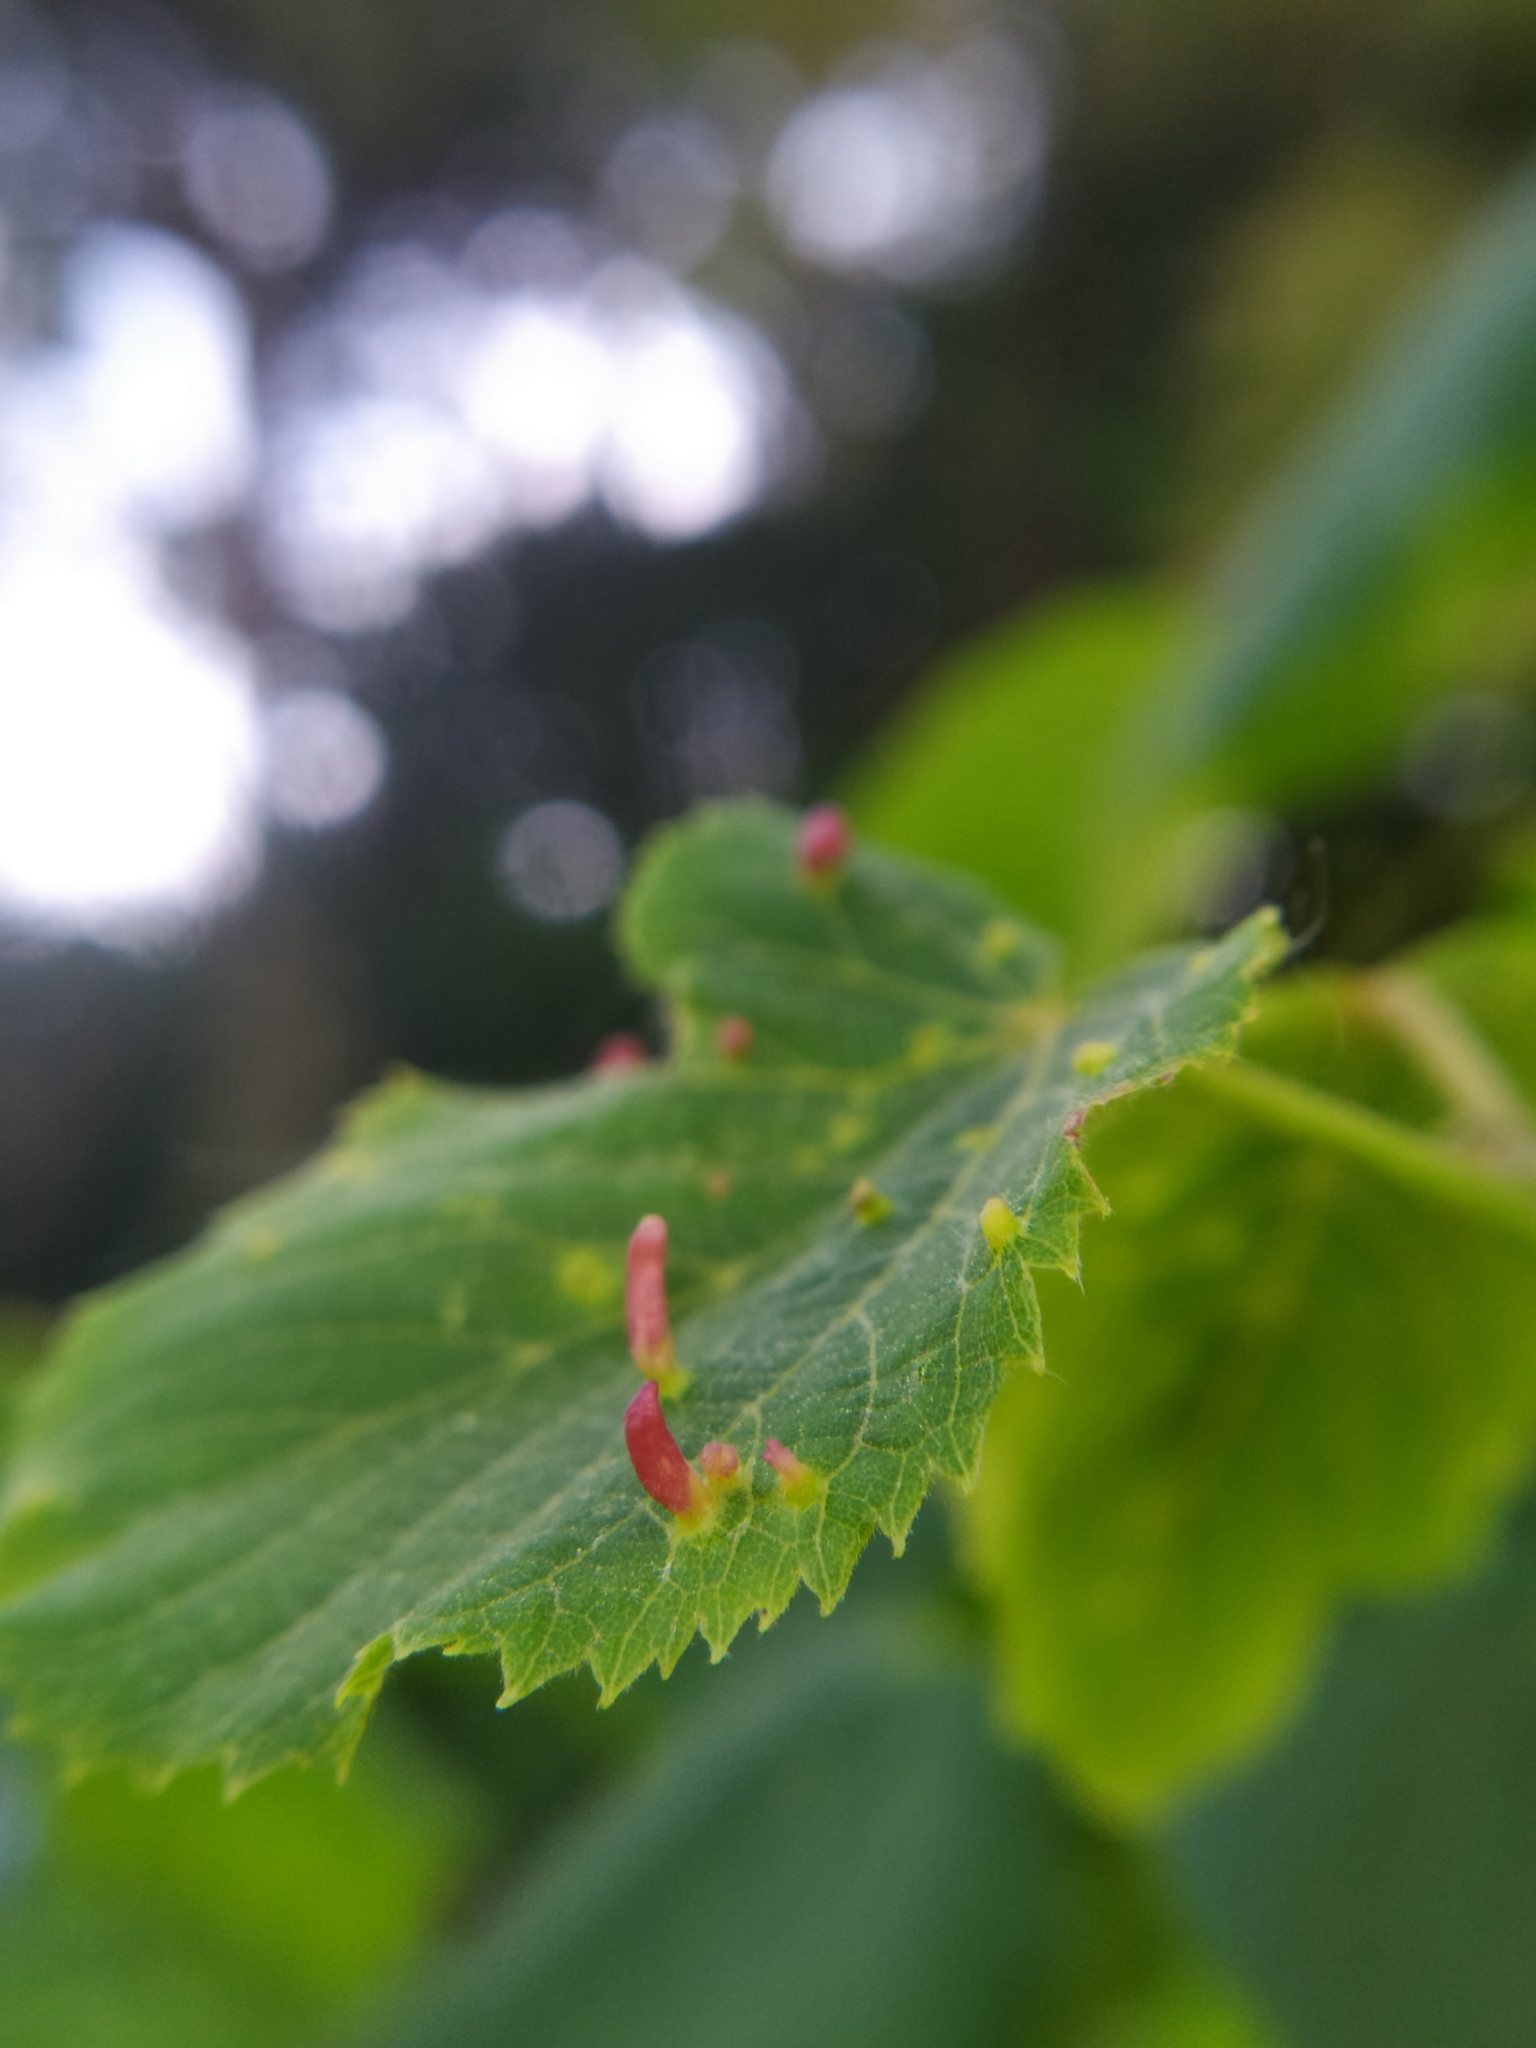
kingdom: Animalia
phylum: Arthropoda
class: Arachnida
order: Trombidiformes
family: Eriophyidae
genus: Eriophyes
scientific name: Eriophyes tiliae
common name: Red nail gall mite
